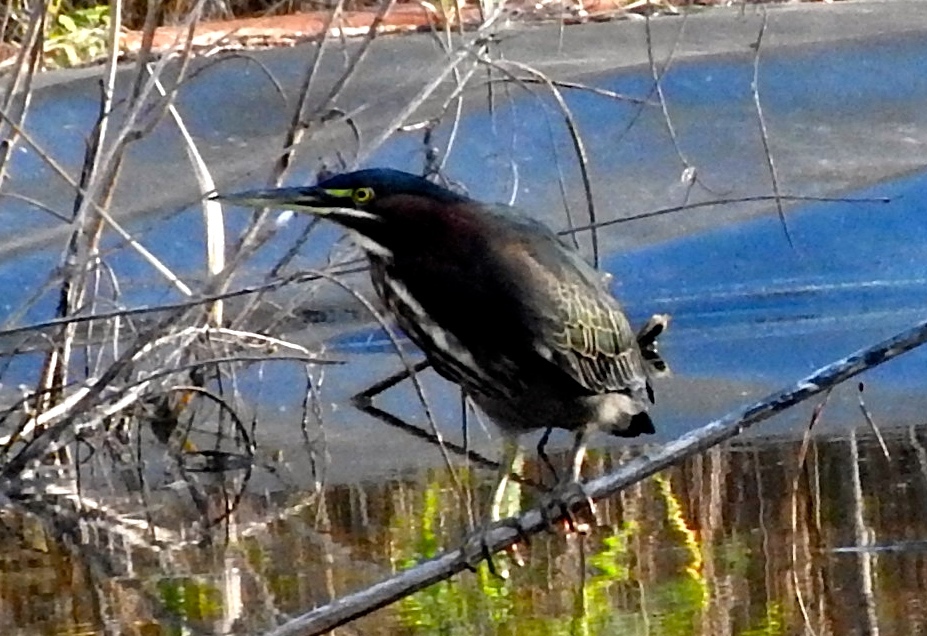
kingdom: Animalia
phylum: Chordata
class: Aves
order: Pelecaniformes
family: Ardeidae
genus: Butorides
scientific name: Butorides virescens
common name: Green heron
